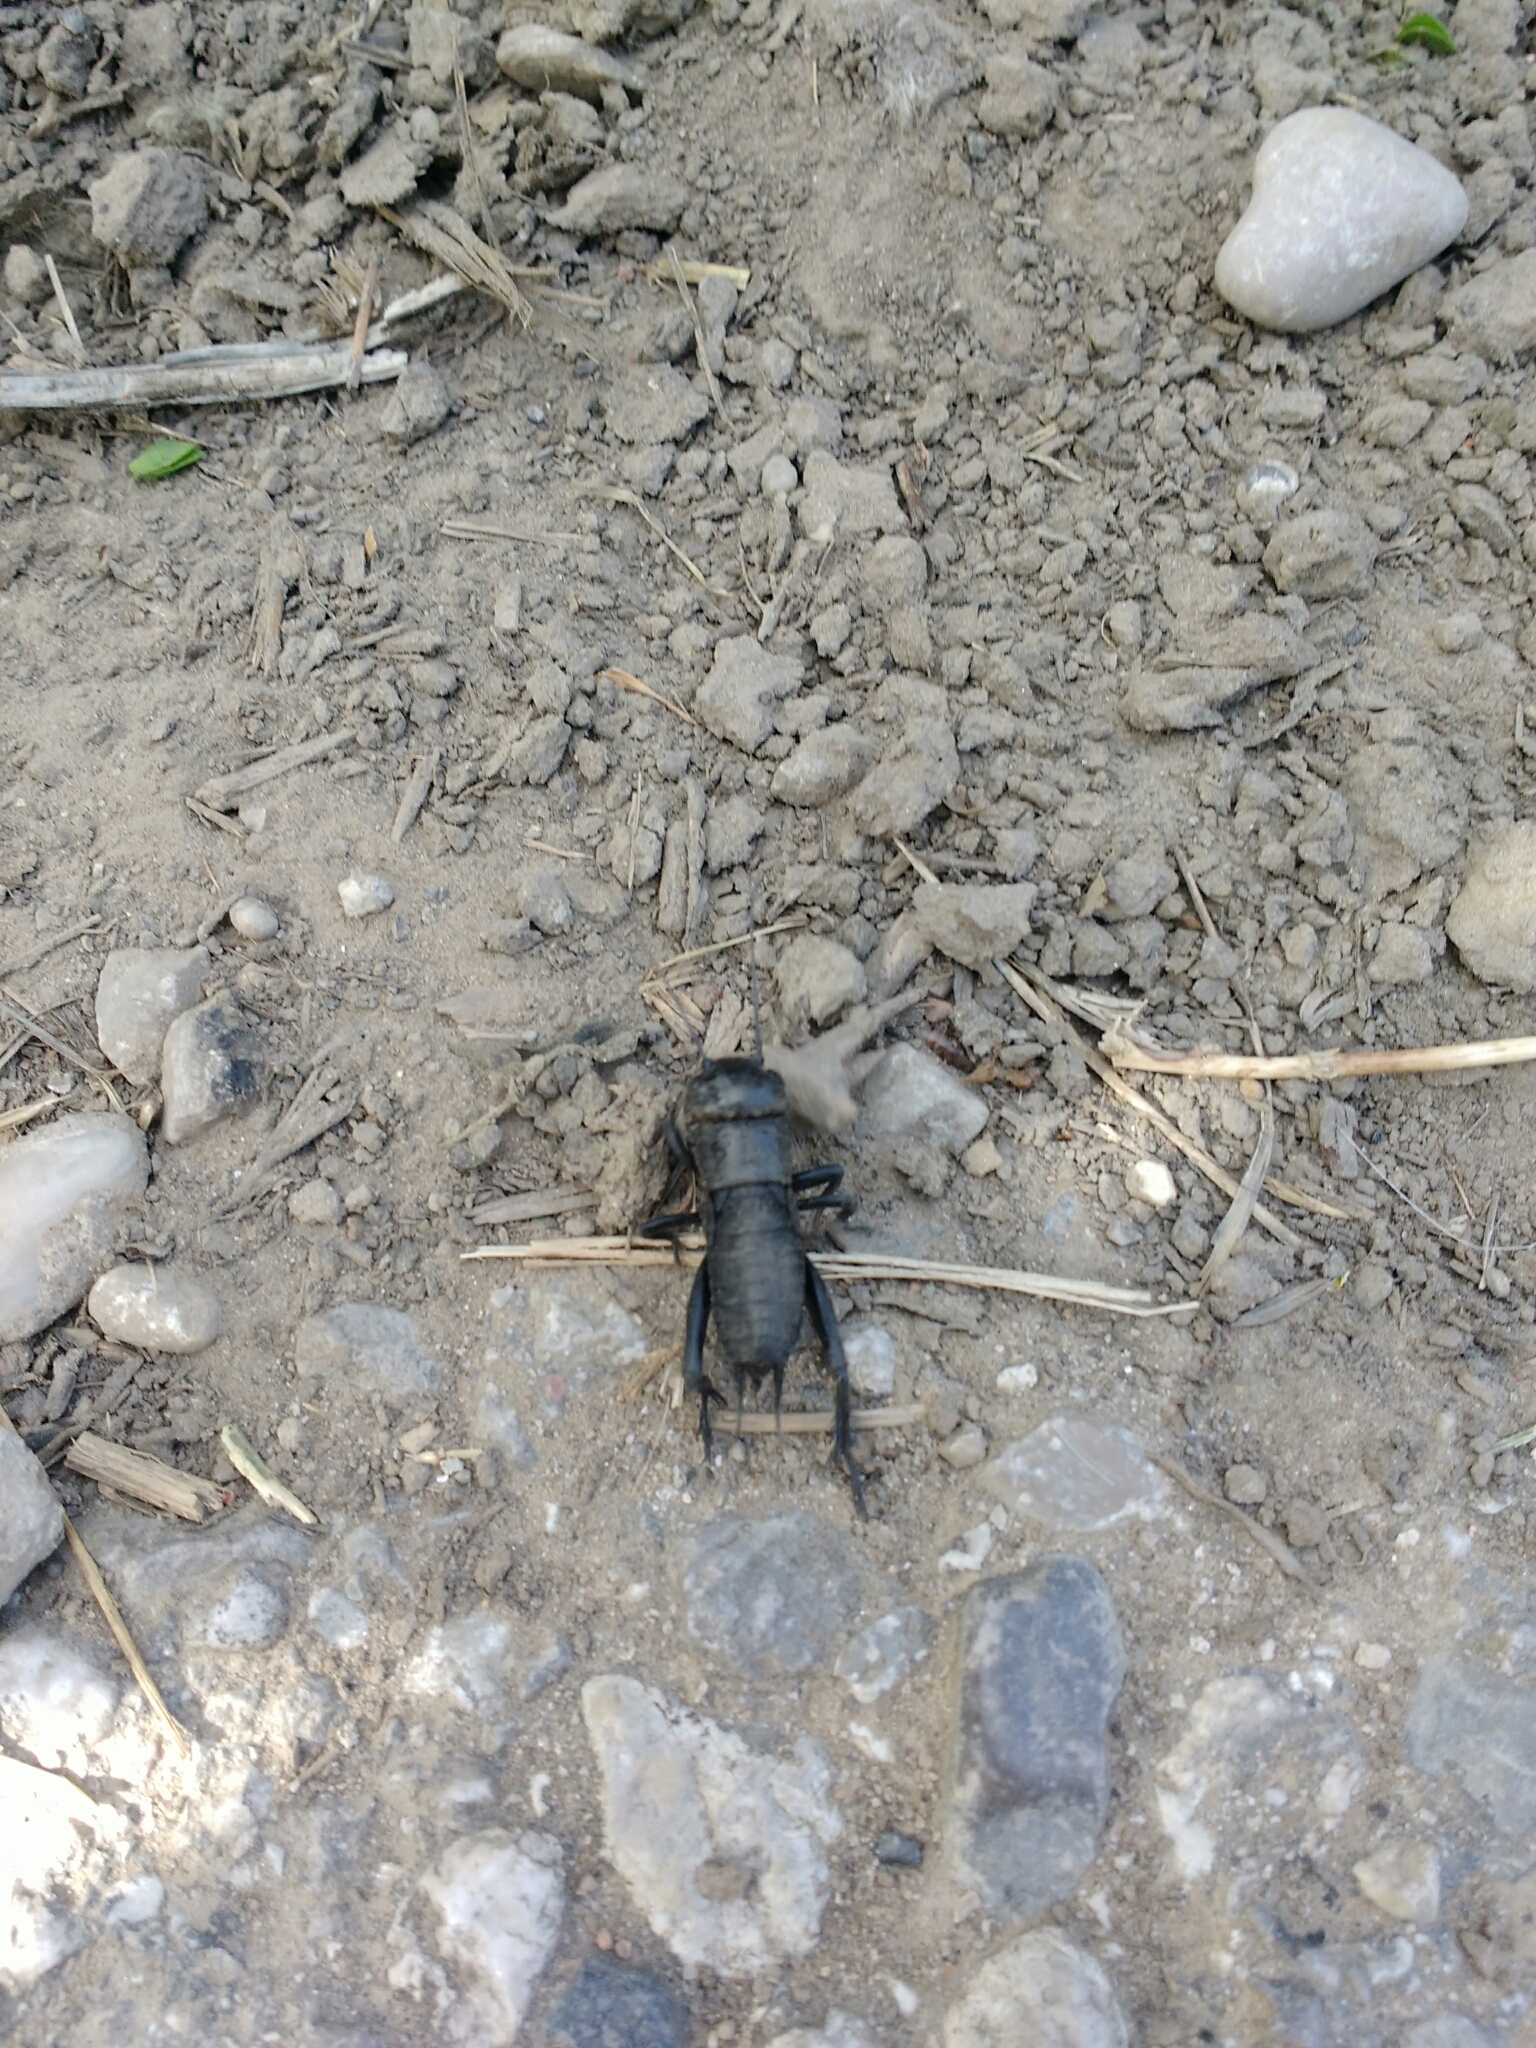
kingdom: Animalia
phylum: Arthropoda
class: Insecta
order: Orthoptera
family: Gryllidae
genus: Gryllus
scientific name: Gryllus campestris
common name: Field cricket
